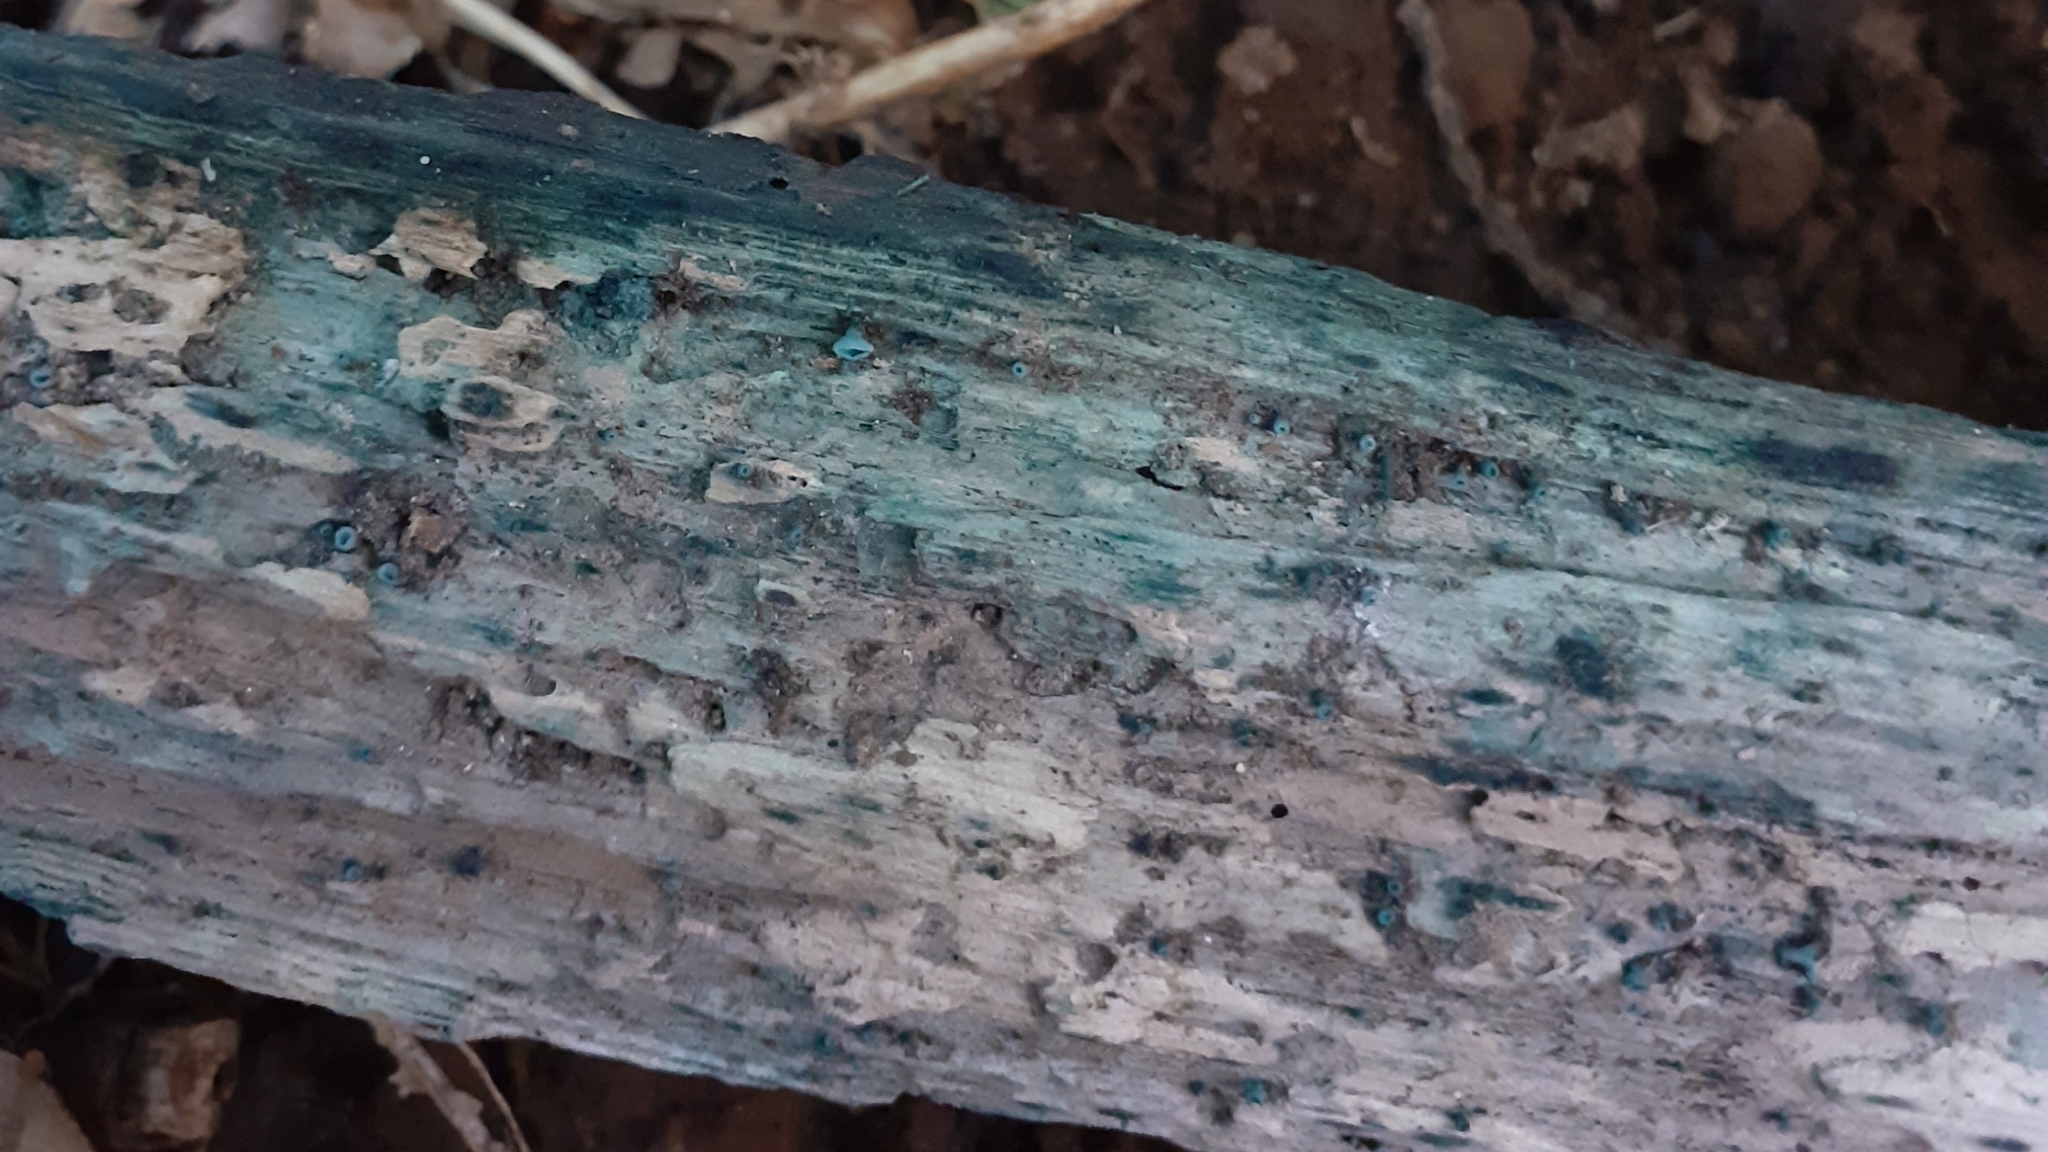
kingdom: Fungi
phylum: Ascomycota
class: Leotiomycetes
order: Helotiales
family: Chlorociboriaceae
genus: Chlorociboria
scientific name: Chlorociboria aeruginascens
